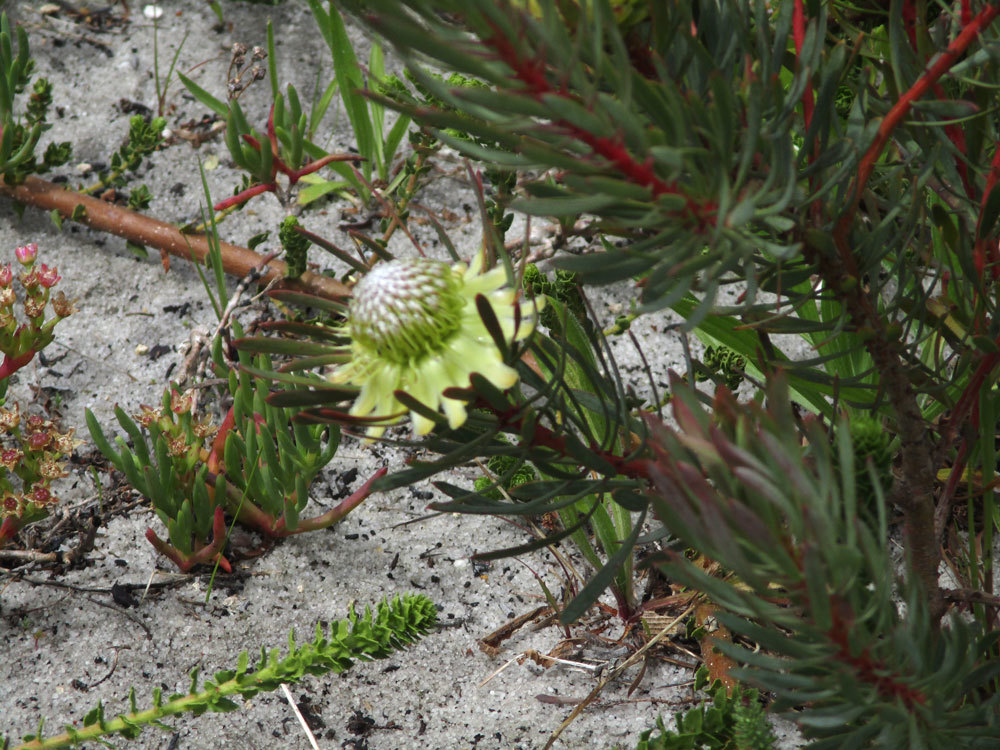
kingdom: Plantae
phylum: Tracheophyta
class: Magnoliopsida
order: Proteales
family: Proteaceae
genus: Protea
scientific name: Protea scolymocephala
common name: Thistle sugarbush
